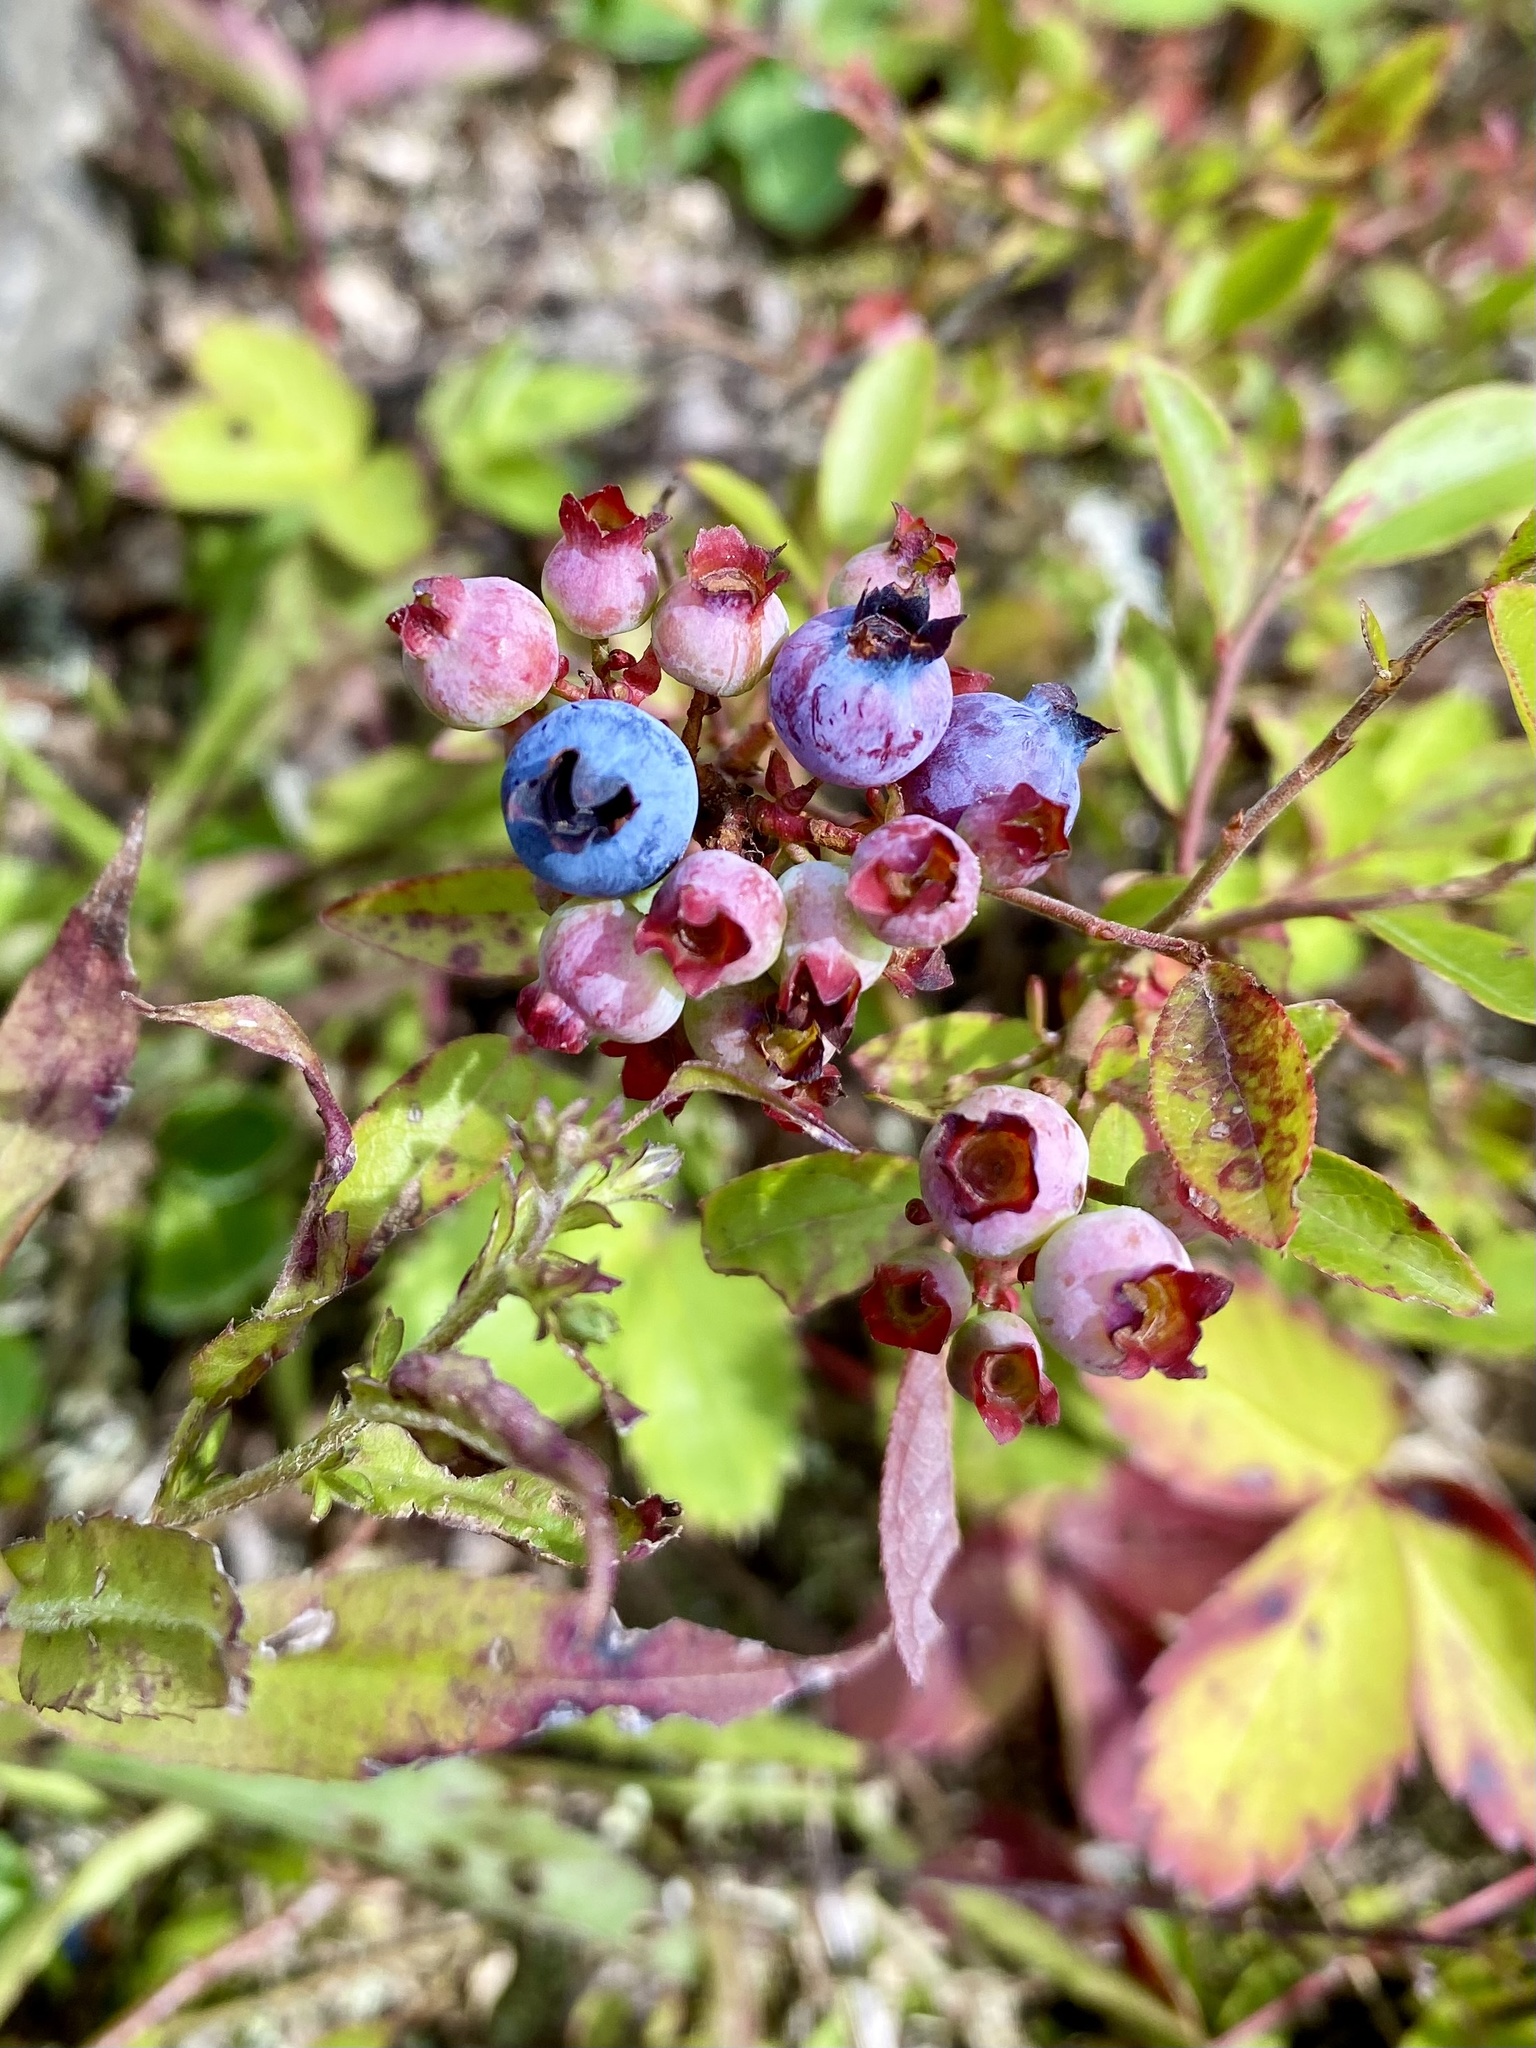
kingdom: Plantae
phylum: Tracheophyta
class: Magnoliopsida
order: Ericales
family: Ericaceae
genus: Vaccinium
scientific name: Vaccinium angustifolium
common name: Early lowbush blueberry
